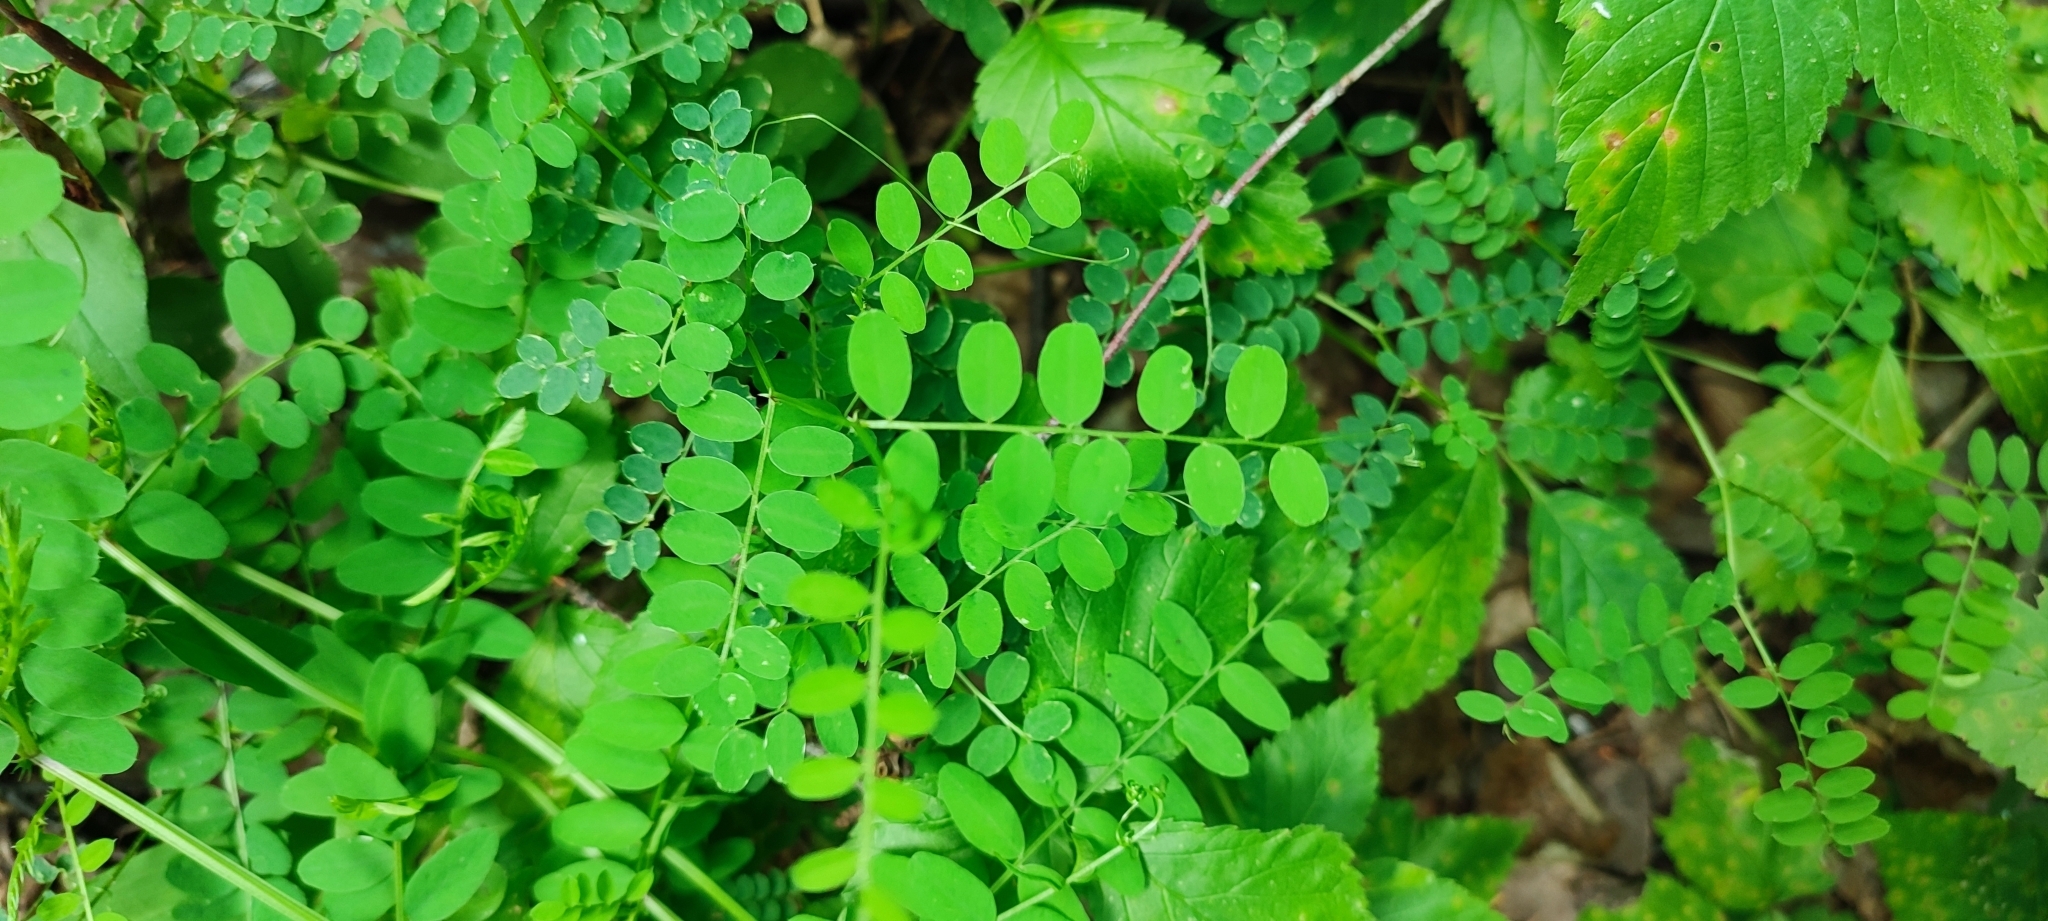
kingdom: Plantae
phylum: Tracheophyta
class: Magnoliopsida
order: Fabales
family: Fabaceae
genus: Vicia
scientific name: Vicia sylvatica
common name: Wood vetch
